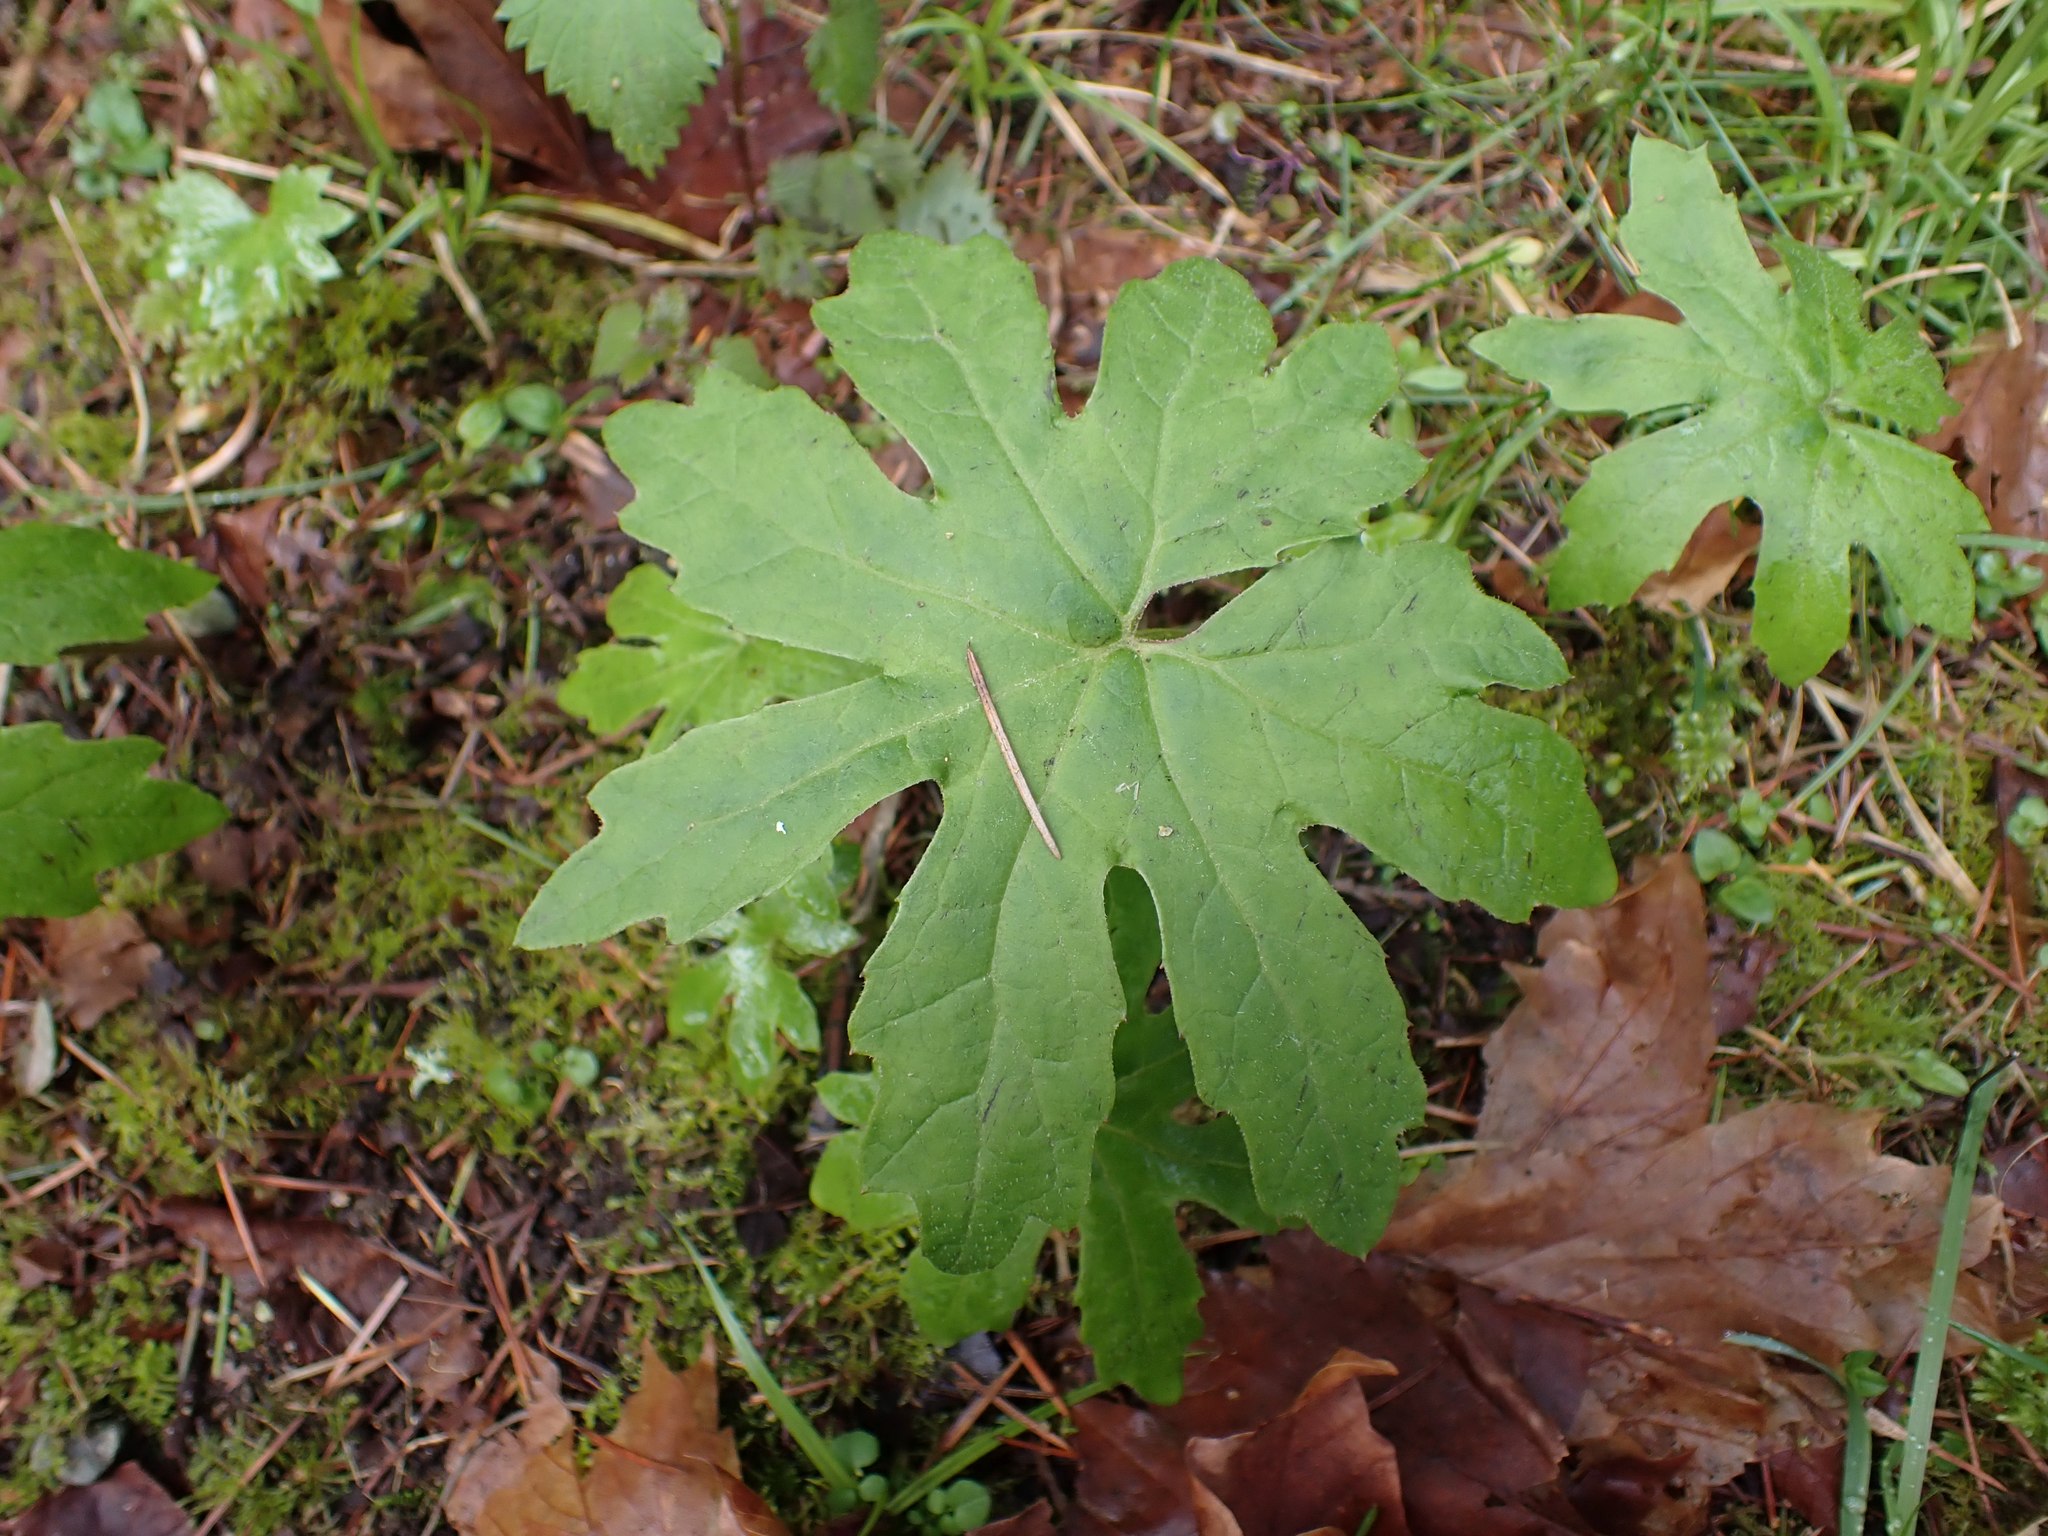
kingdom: Plantae
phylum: Tracheophyta
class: Magnoliopsida
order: Asterales
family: Asteraceae
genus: Petasites
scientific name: Petasites frigidus
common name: Arctic butterbur
